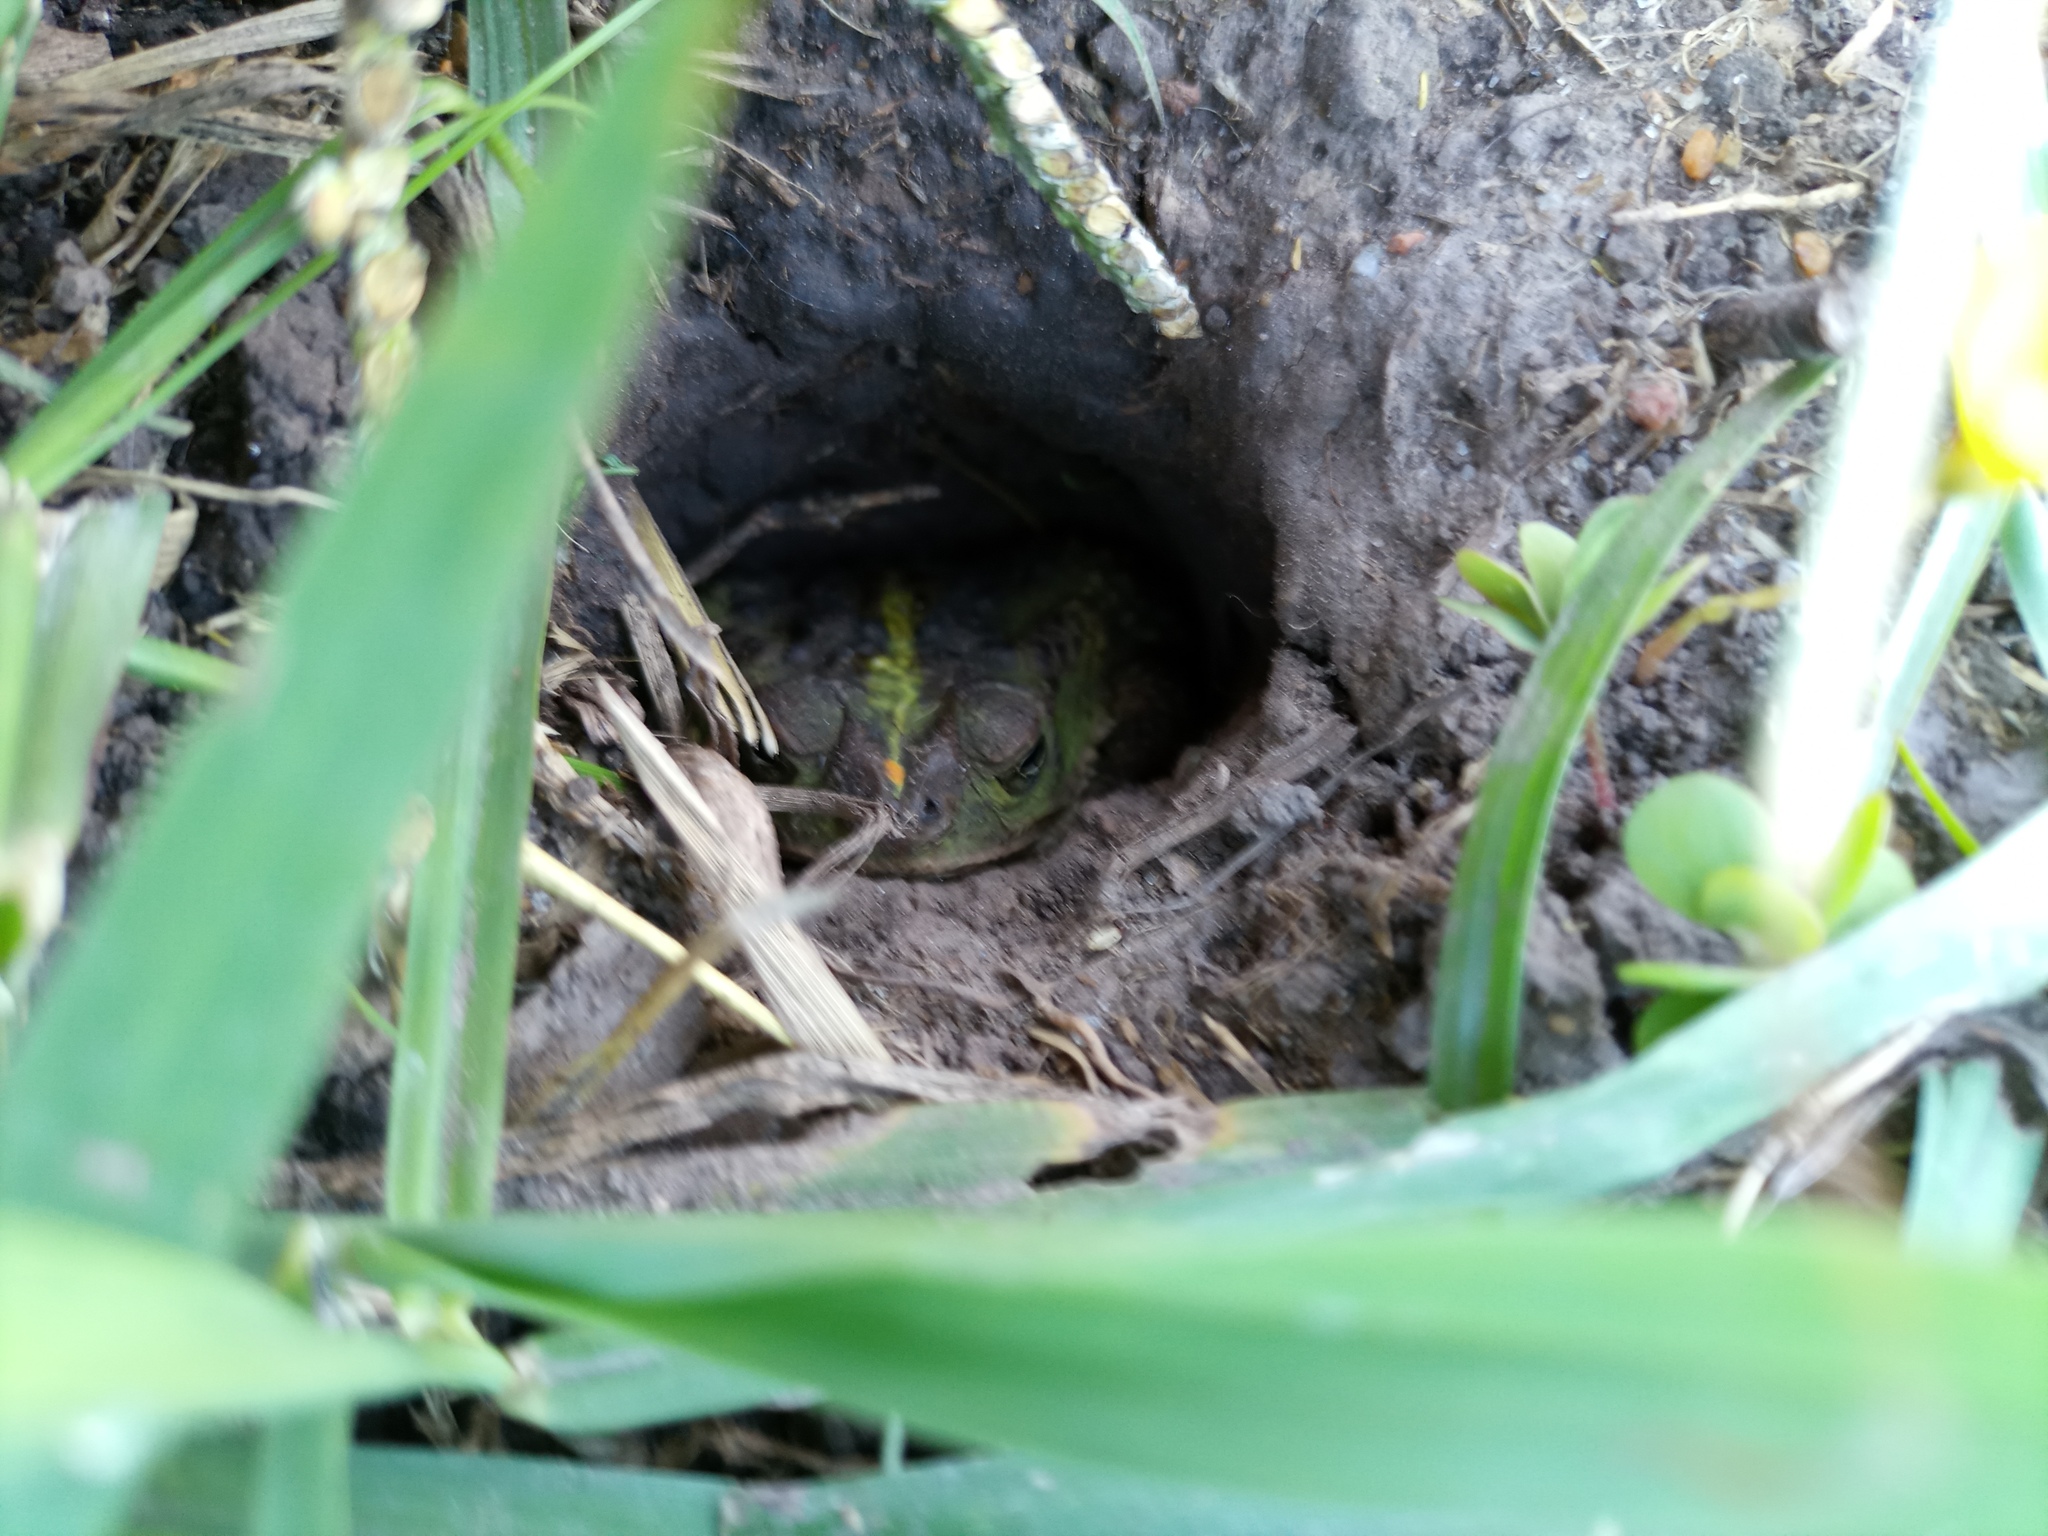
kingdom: Animalia
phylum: Chordata
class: Amphibia
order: Anura
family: Bufonidae
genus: Rhinella
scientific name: Rhinella dorbignyi
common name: D´orbigny’s toad
